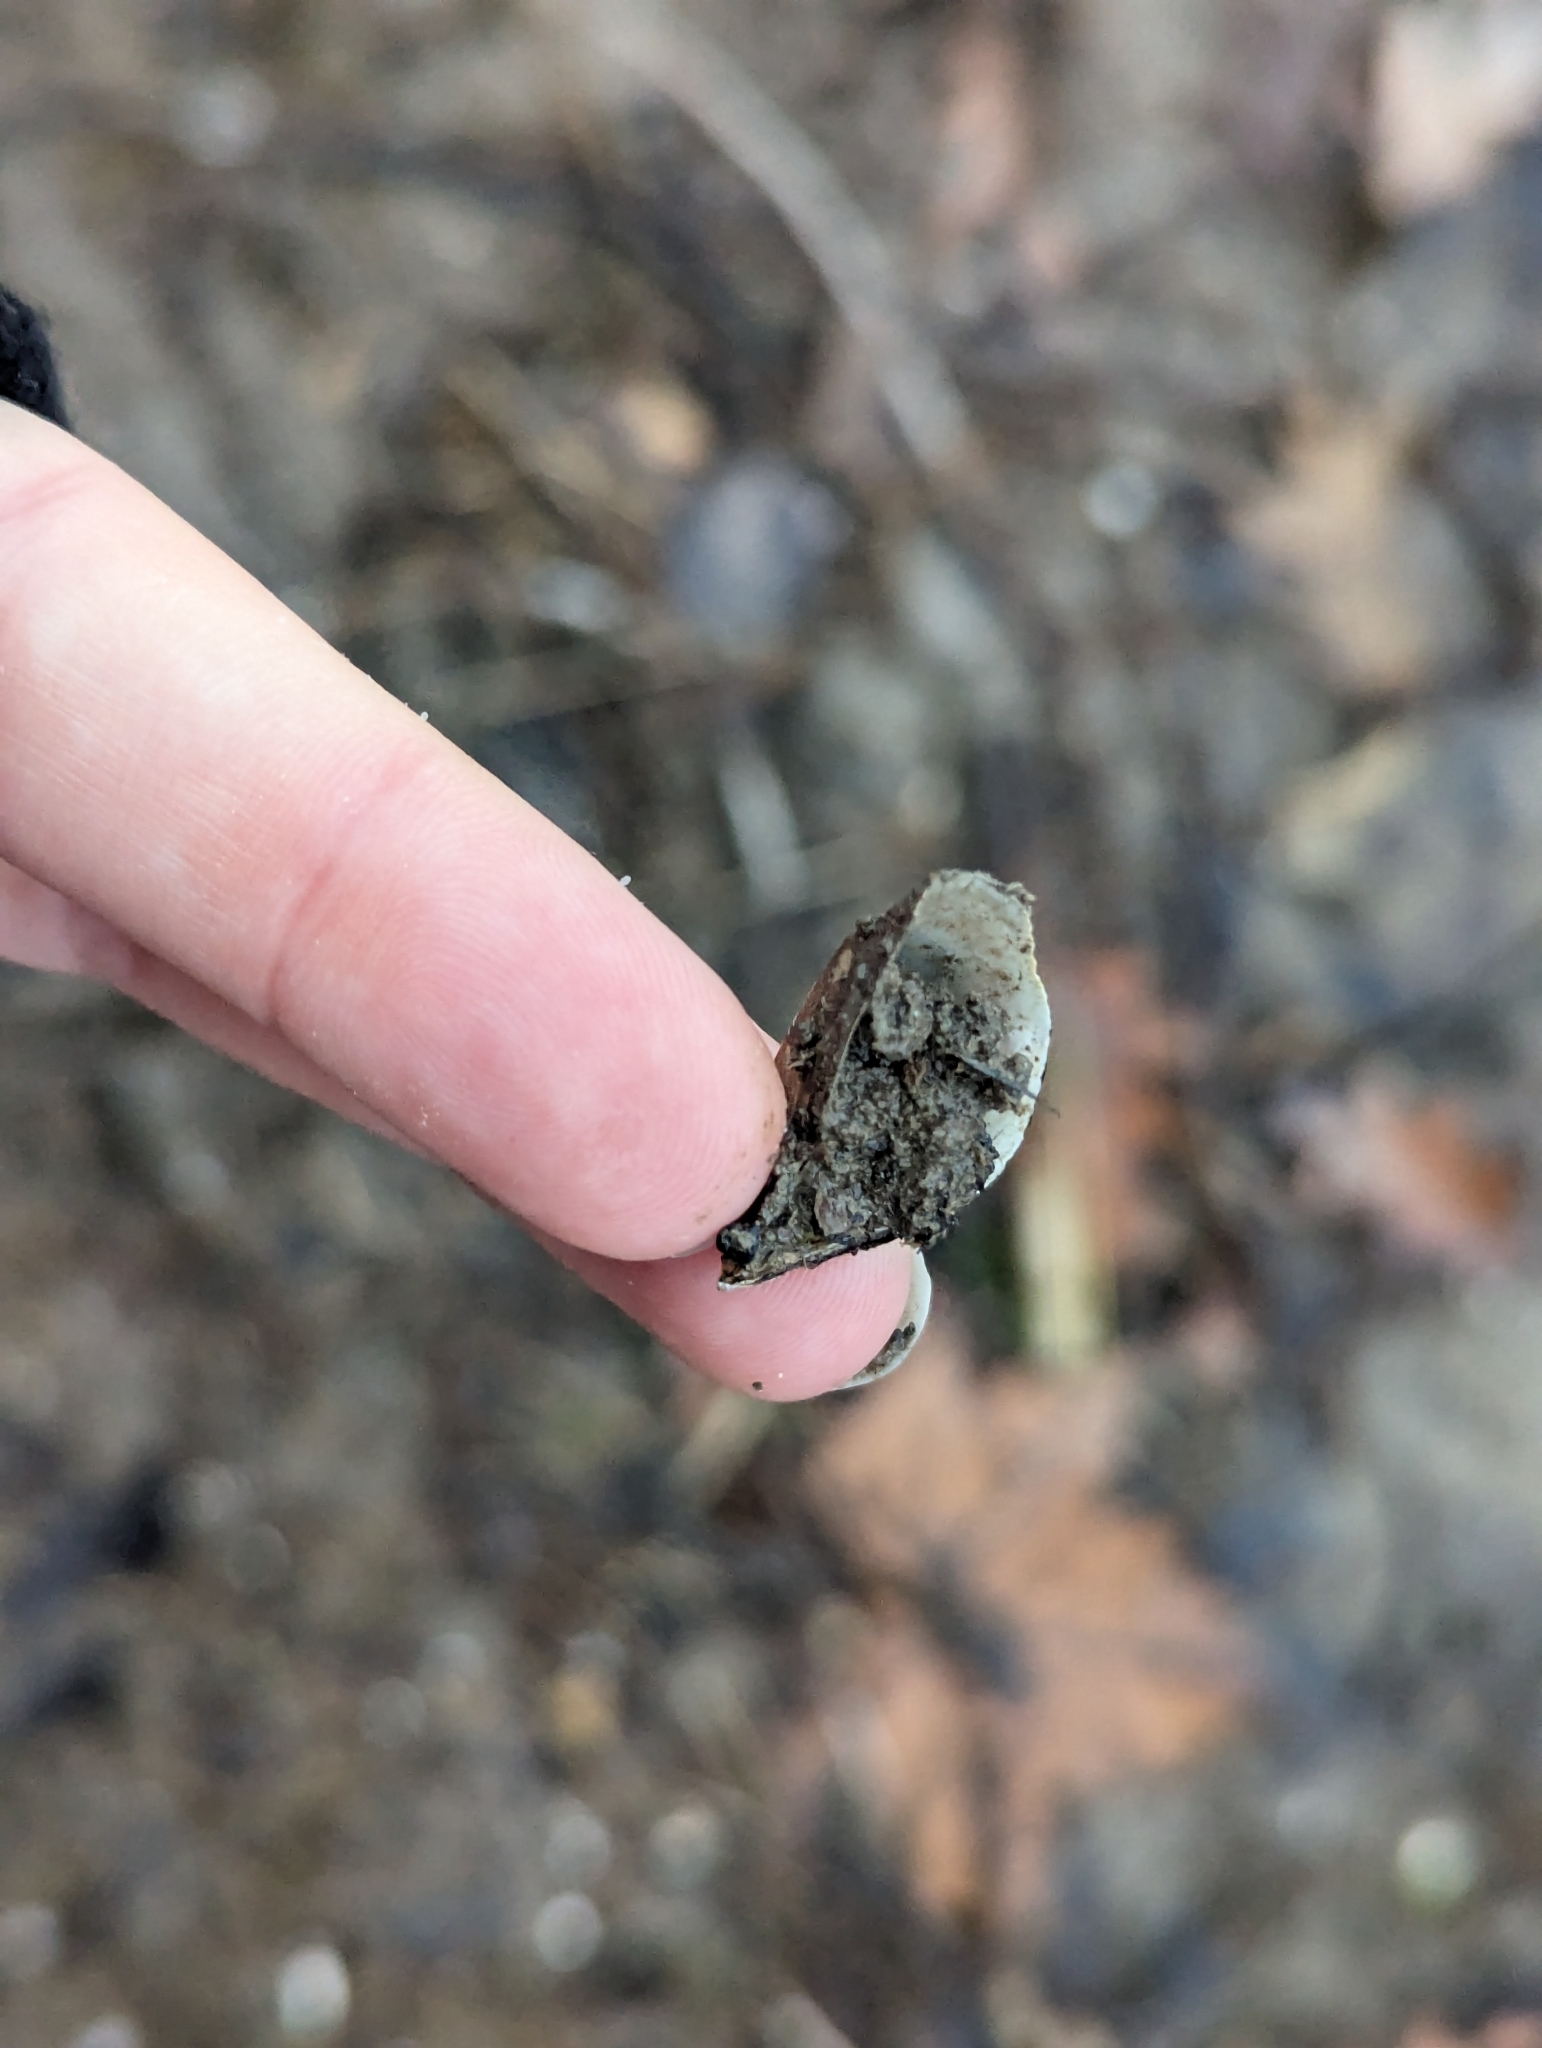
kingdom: Animalia
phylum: Mollusca
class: Bivalvia
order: Myida
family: Dreissenidae
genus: Dreissena
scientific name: Dreissena polymorpha
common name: Zebra mussel
